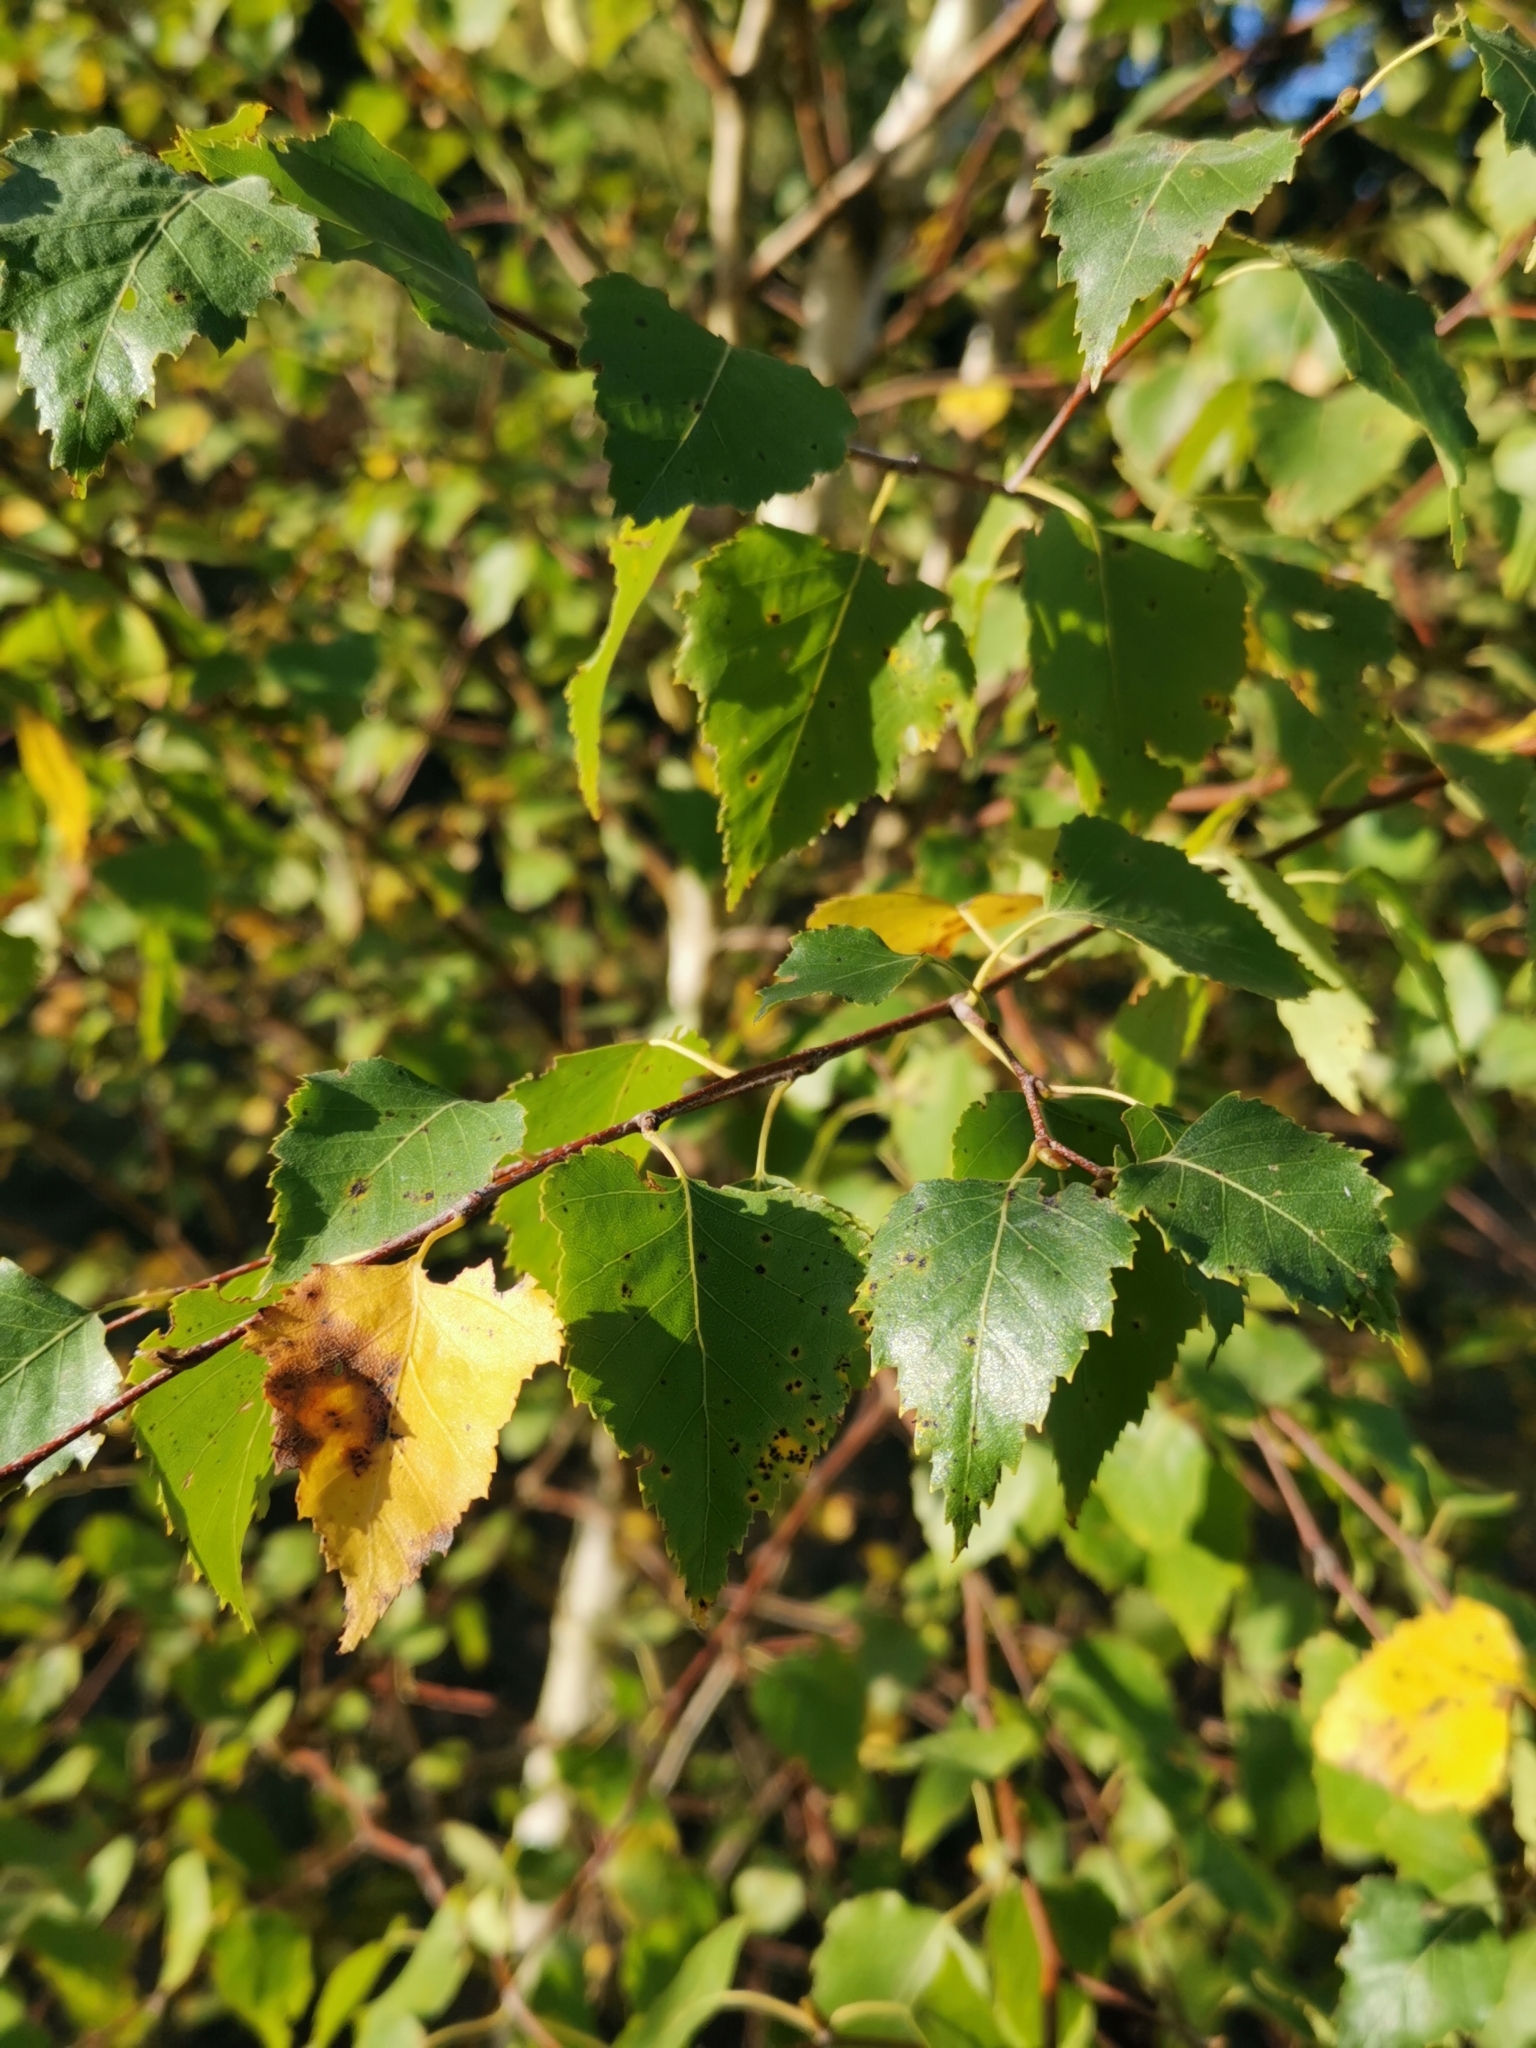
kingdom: Plantae
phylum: Tracheophyta
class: Magnoliopsida
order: Fagales
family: Betulaceae
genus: Betula
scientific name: Betula pendula
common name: Silver birch
